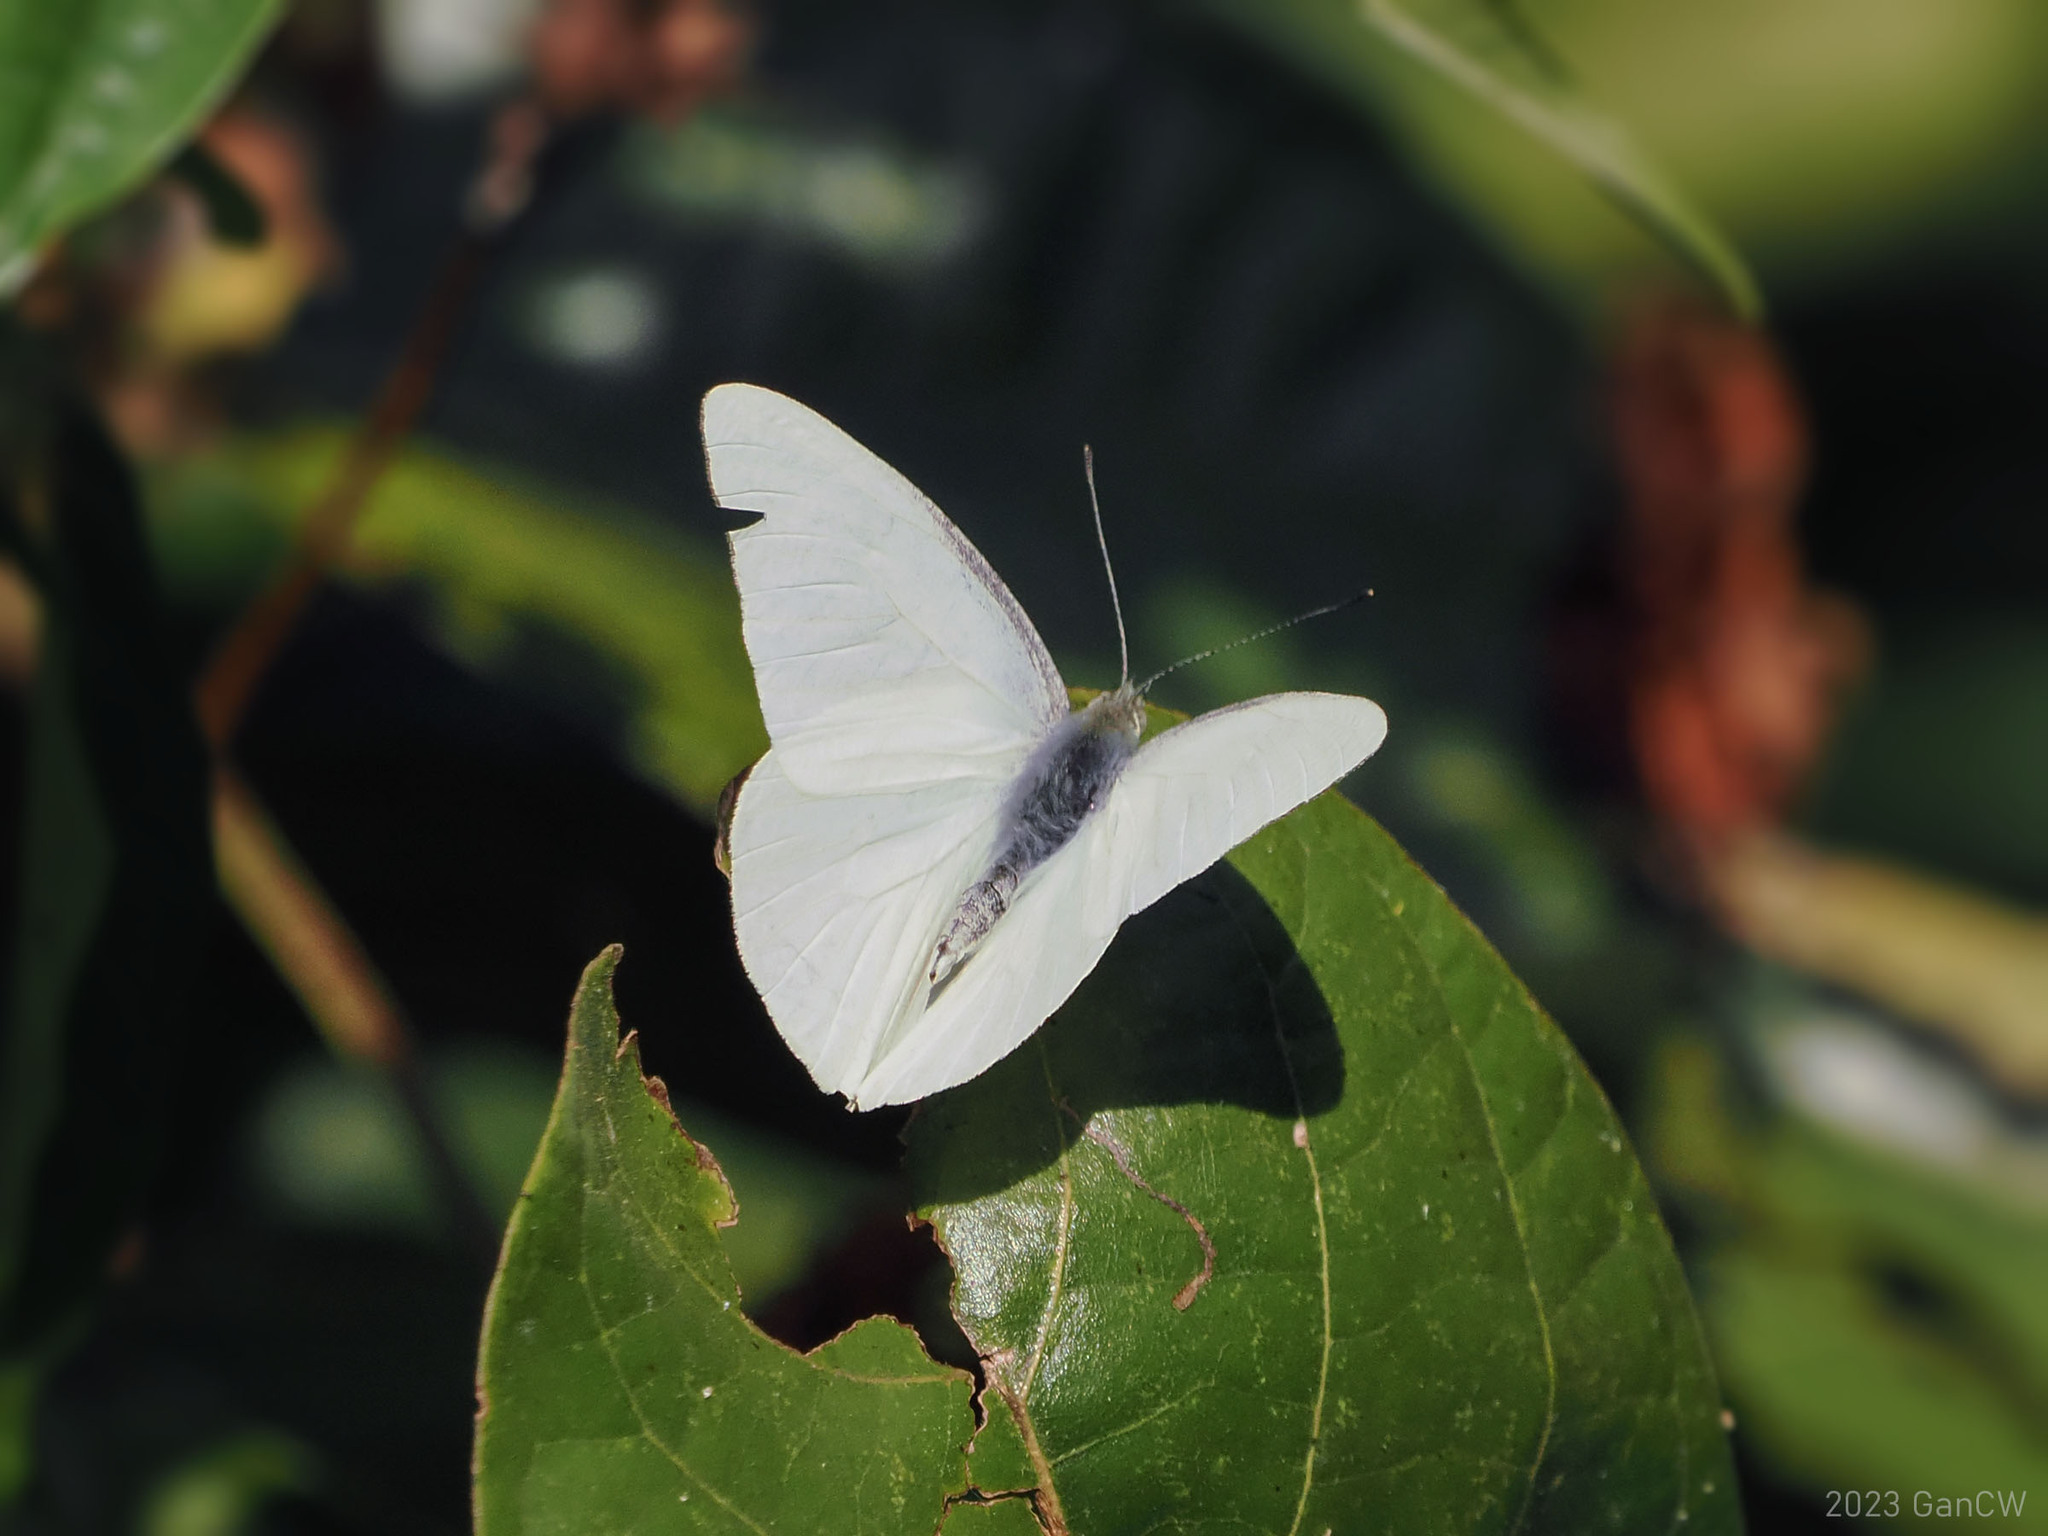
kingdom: Animalia
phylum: Arthropoda
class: Insecta
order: Lepidoptera
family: Pieridae
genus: Appias
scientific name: Appias albina
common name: Common albatross
